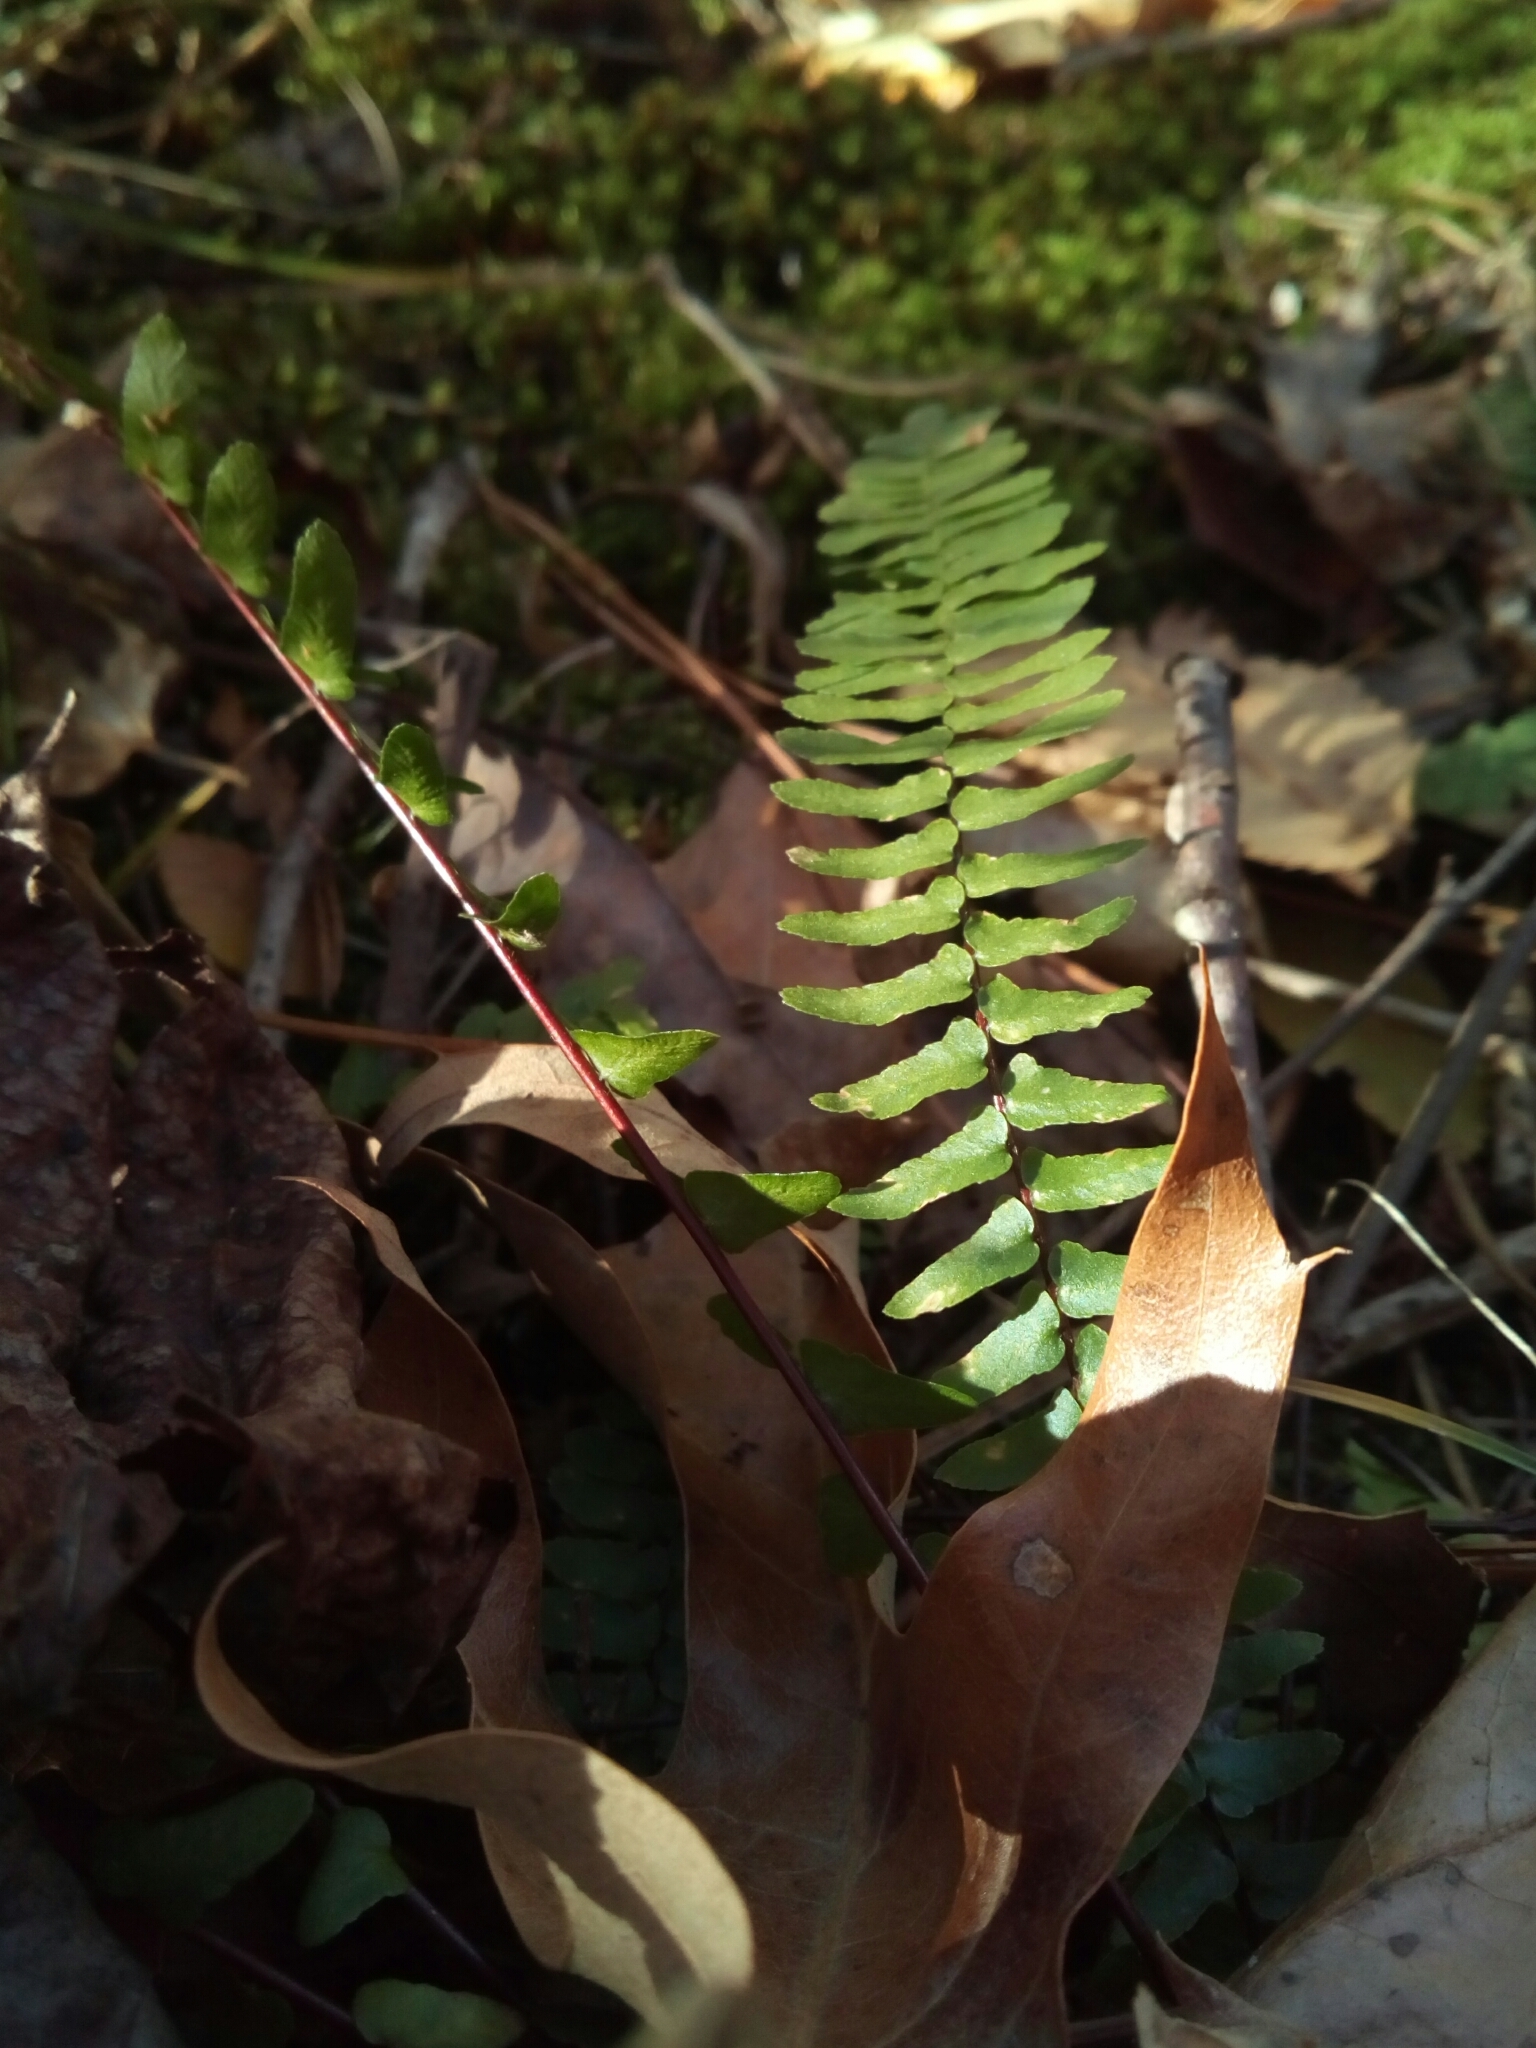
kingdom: Plantae
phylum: Tracheophyta
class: Polypodiopsida
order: Polypodiales
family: Aspleniaceae
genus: Asplenium
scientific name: Asplenium platyneuron
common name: Ebony spleenwort
